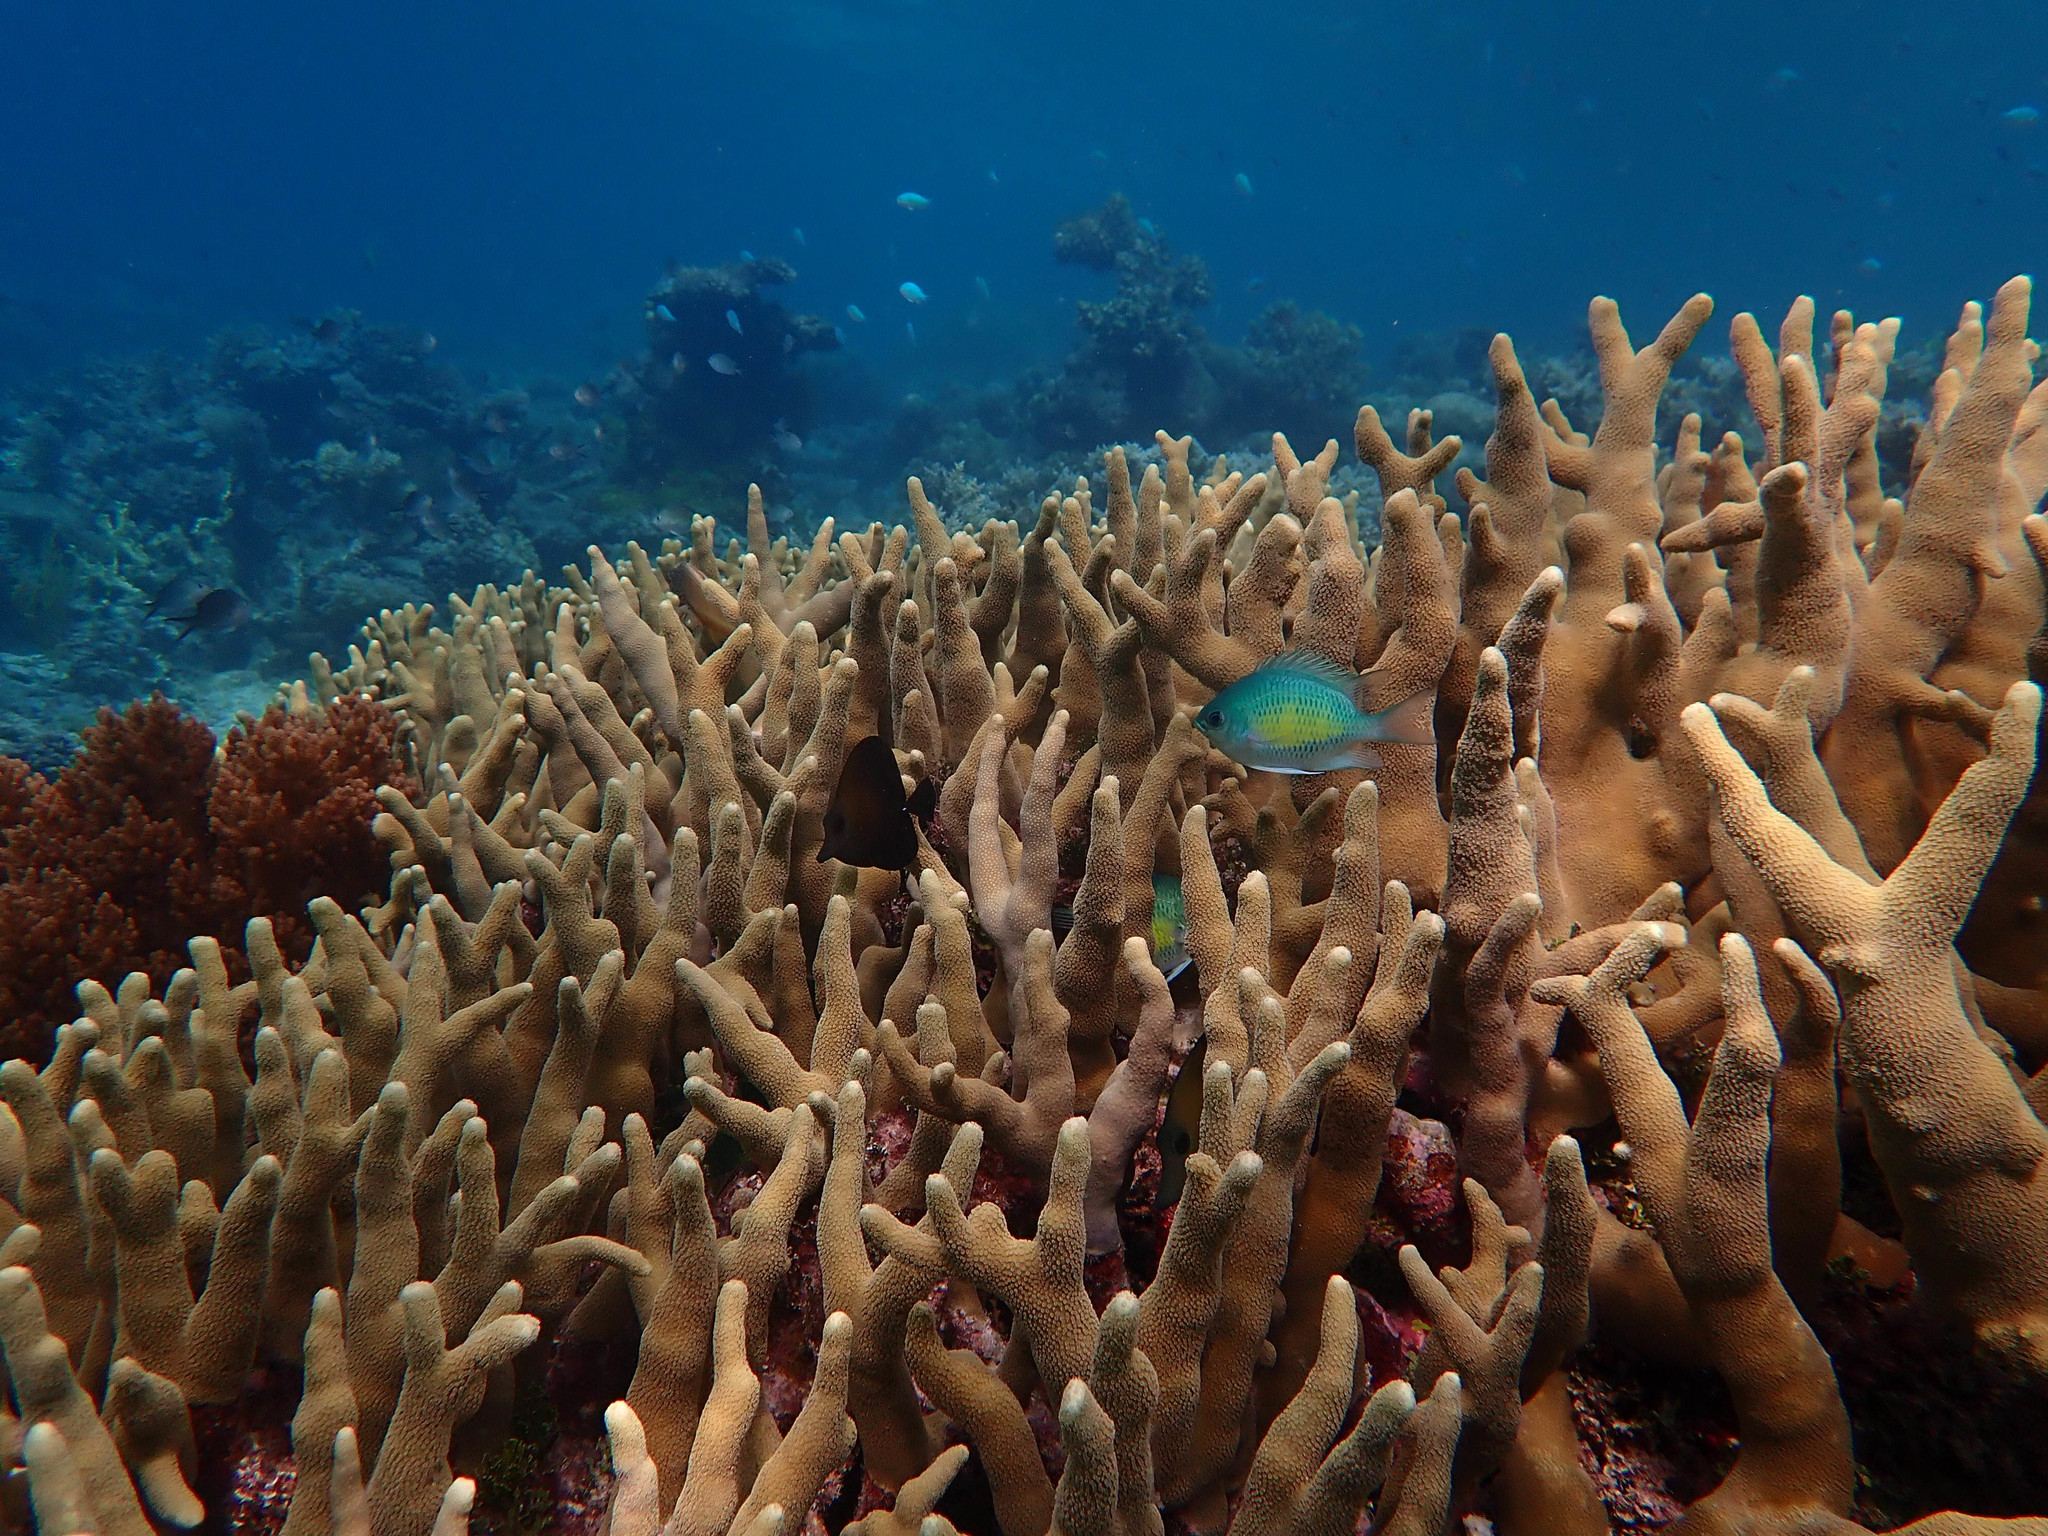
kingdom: Animalia
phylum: Chordata
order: Perciformes
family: Acanthuridae
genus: Zebrasoma
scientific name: Zebrasoma scopas
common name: Twotone tang
